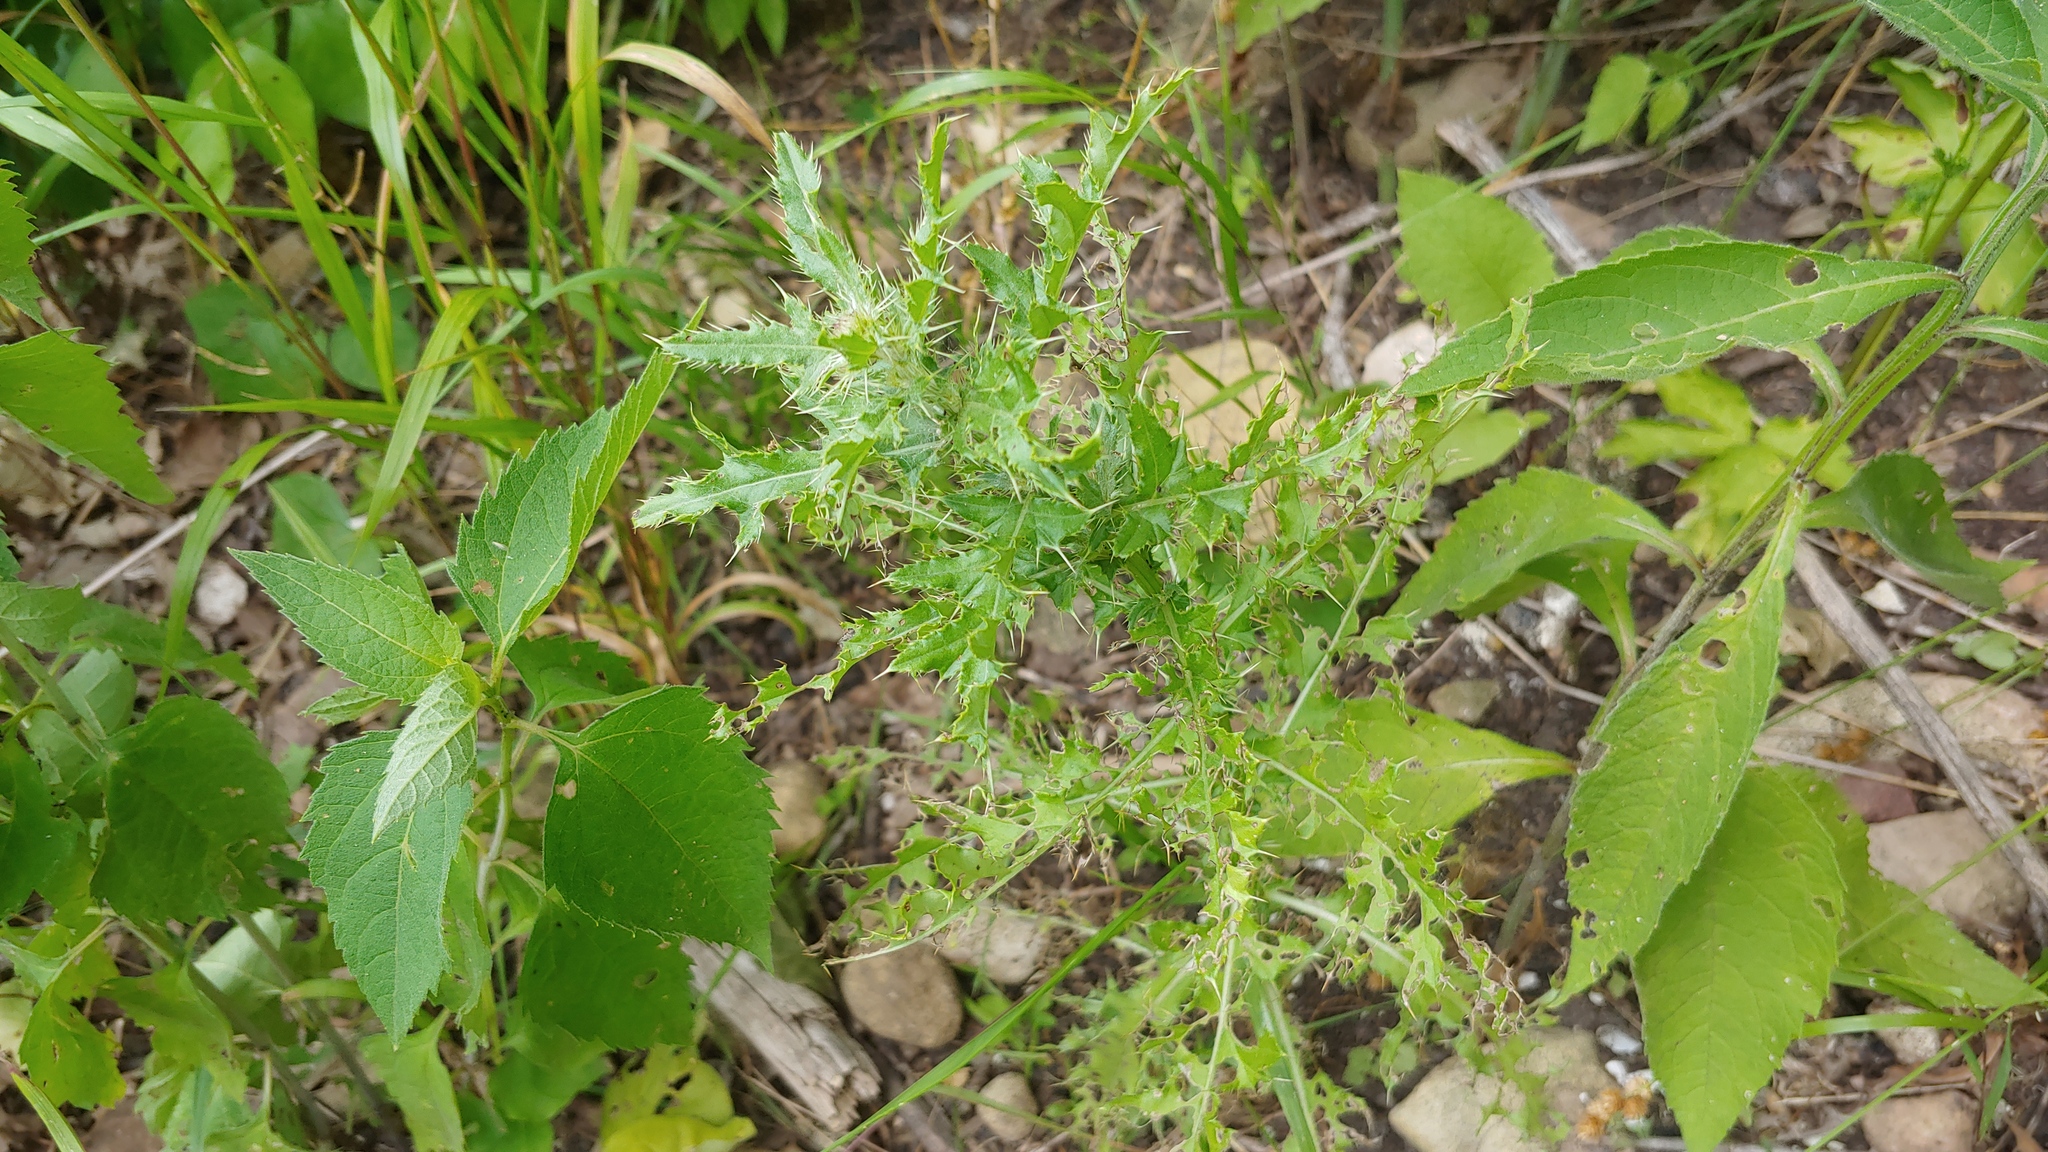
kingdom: Plantae
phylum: Tracheophyta
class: Magnoliopsida
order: Asterales
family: Asteraceae
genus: Cirsium
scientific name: Cirsium arvense
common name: Creeping thistle
